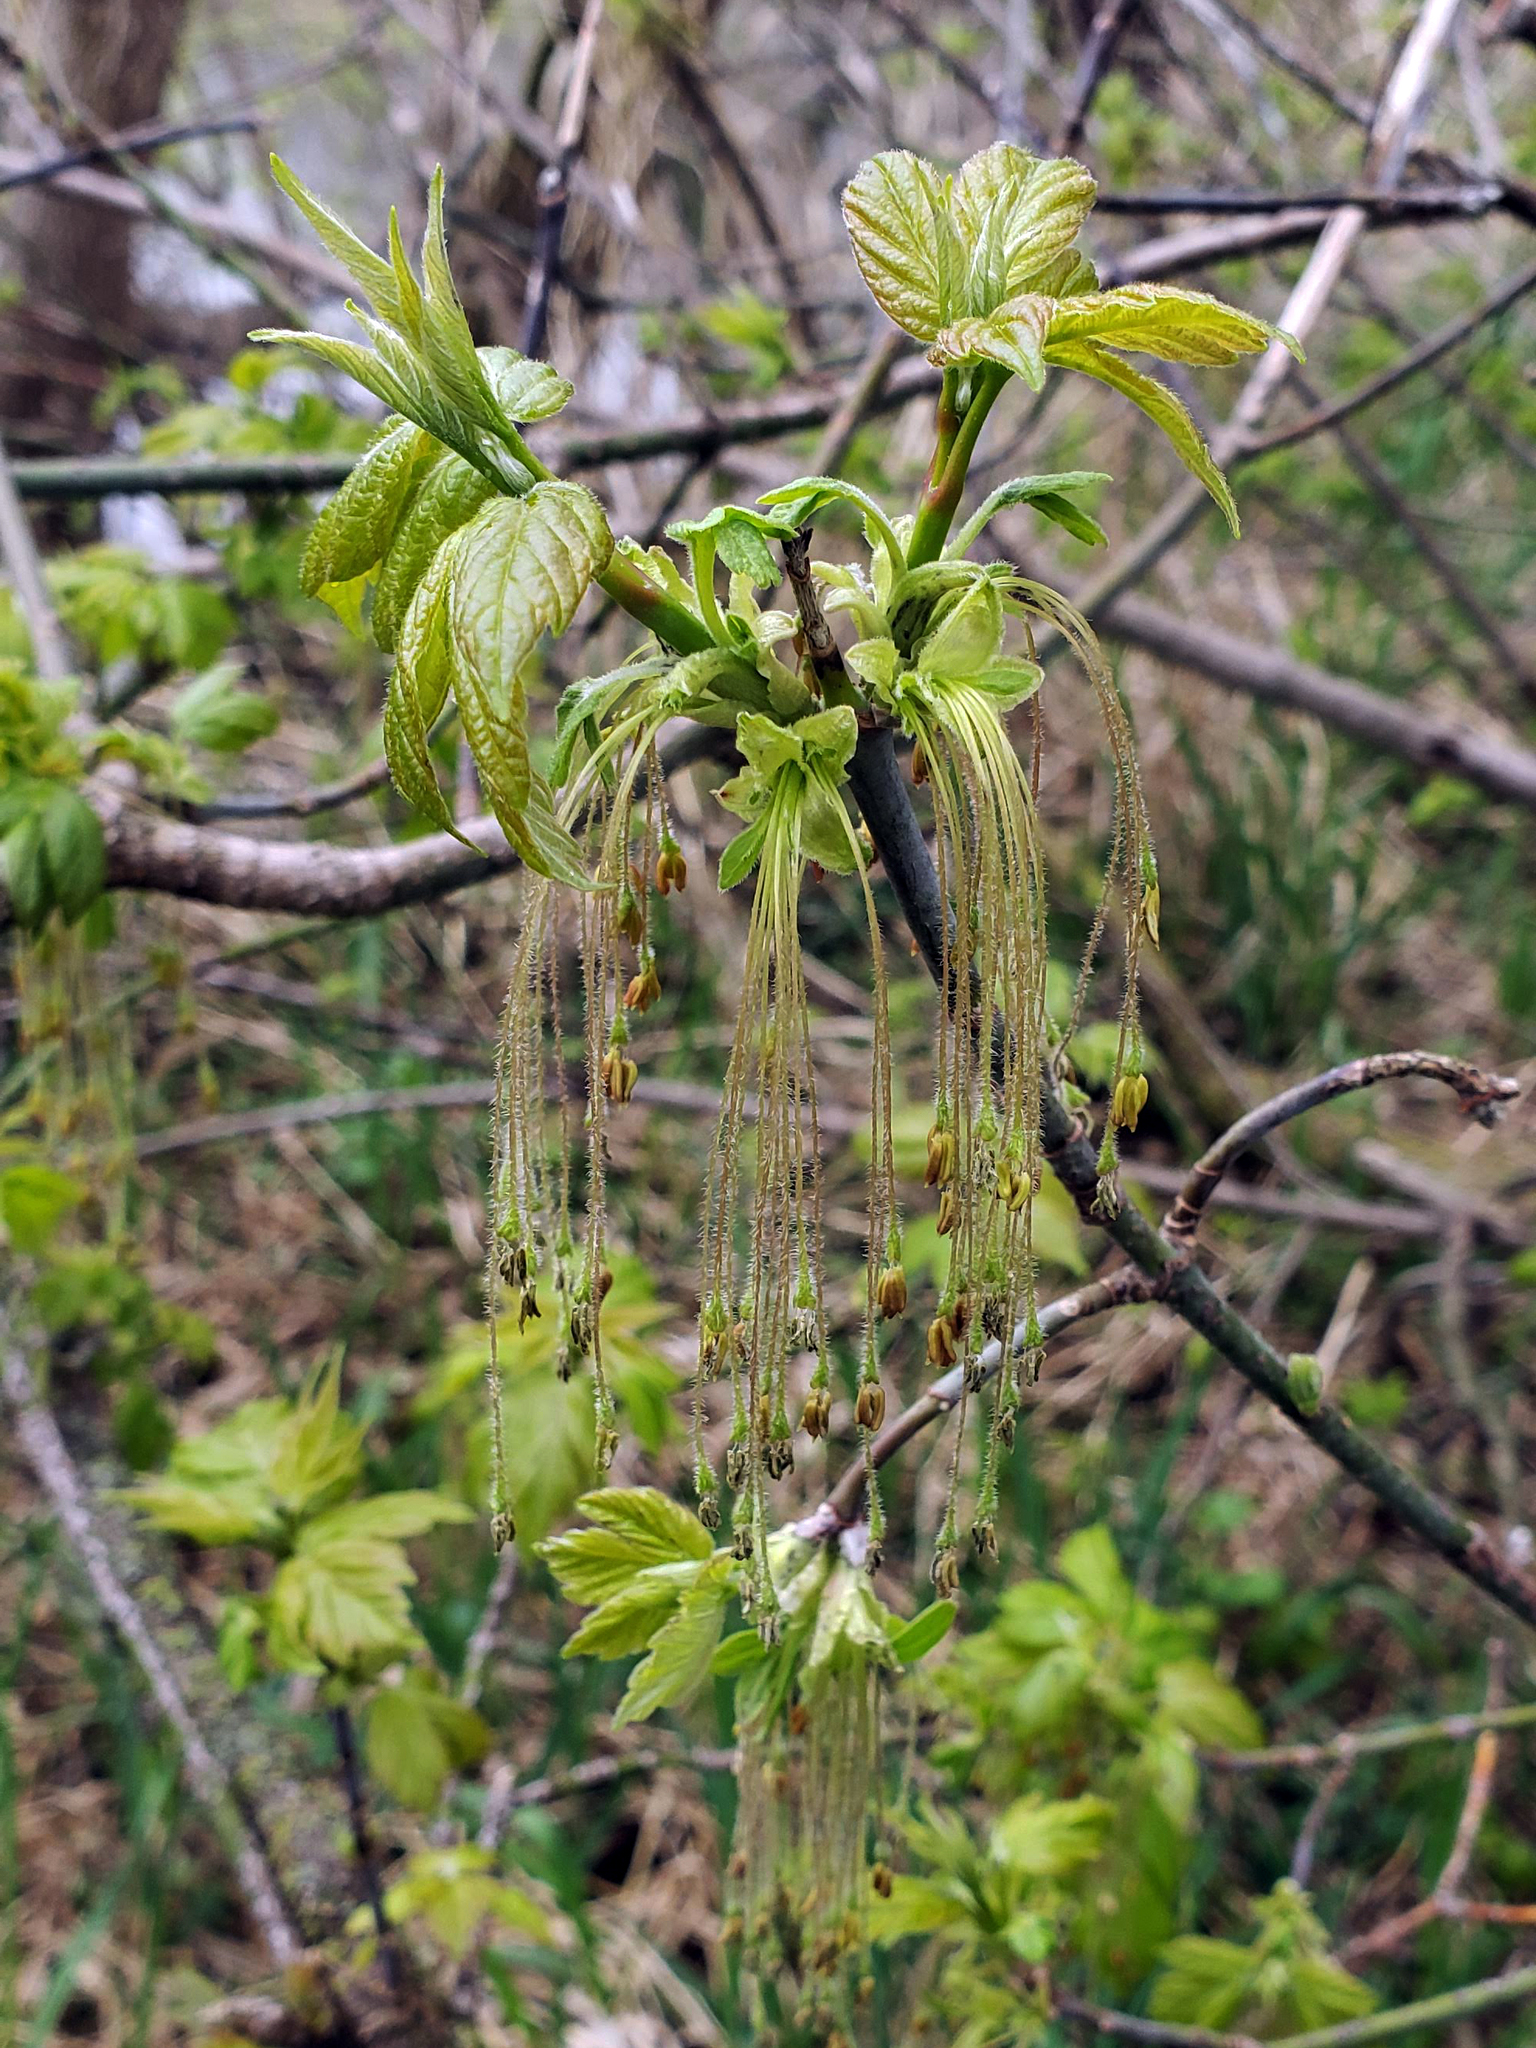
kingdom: Plantae
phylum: Tracheophyta
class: Magnoliopsida
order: Sapindales
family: Sapindaceae
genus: Acer
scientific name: Acer negundo
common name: Ashleaf maple
